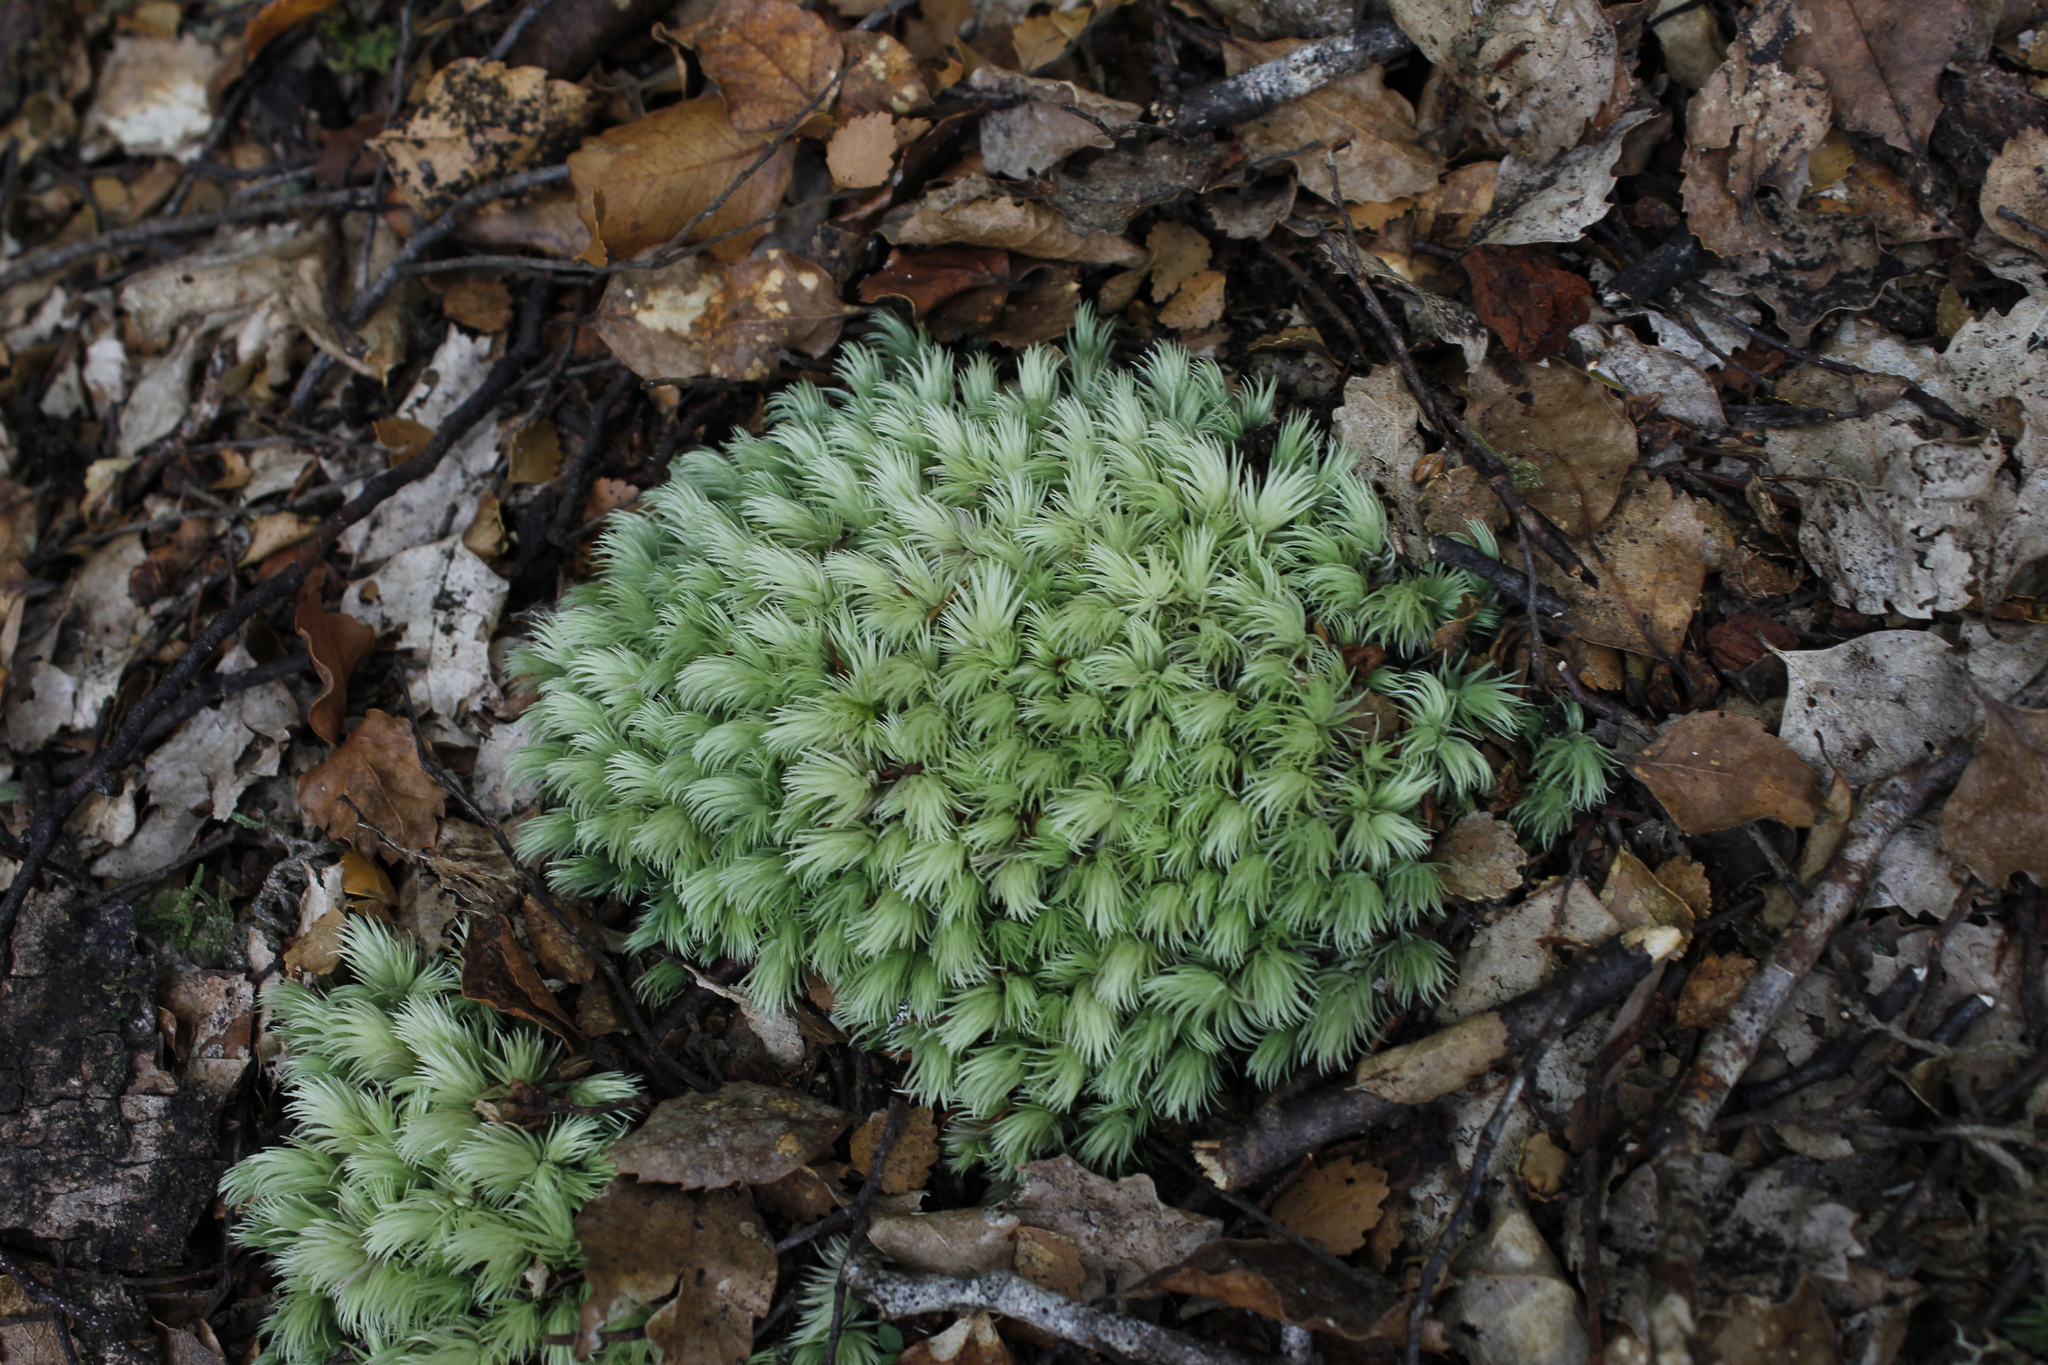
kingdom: Plantae
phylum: Bryophyta
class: Bryopsida
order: Dicranales
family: Leucobryaceae
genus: Leucobryum
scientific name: Leucobryum javense
